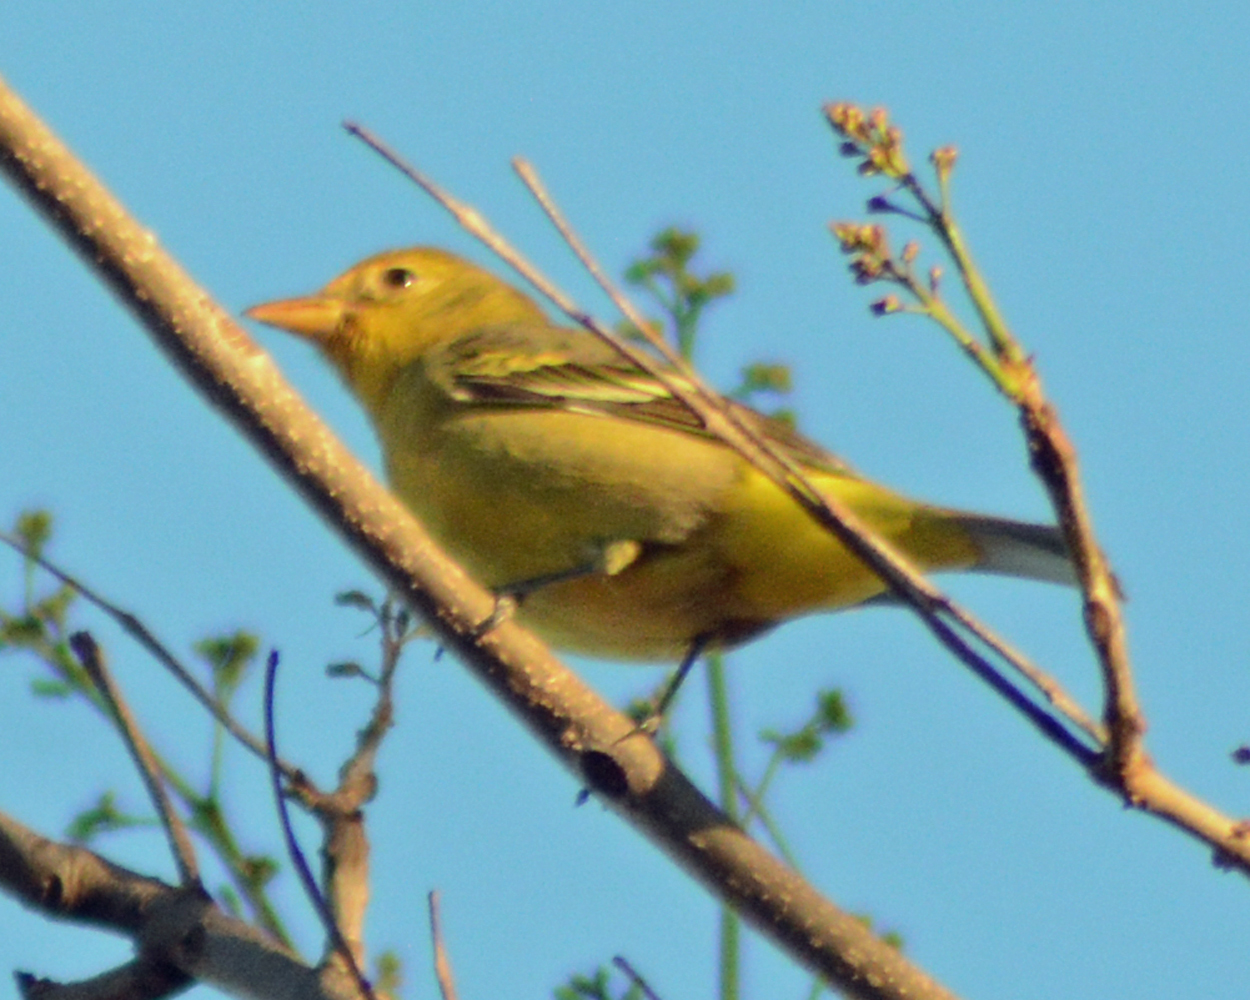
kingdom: Animalia
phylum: Chordata
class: Aves
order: Passeriformes
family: Cardinalidae
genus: Piranga
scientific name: Piranga ludoviciana
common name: Western tanager
